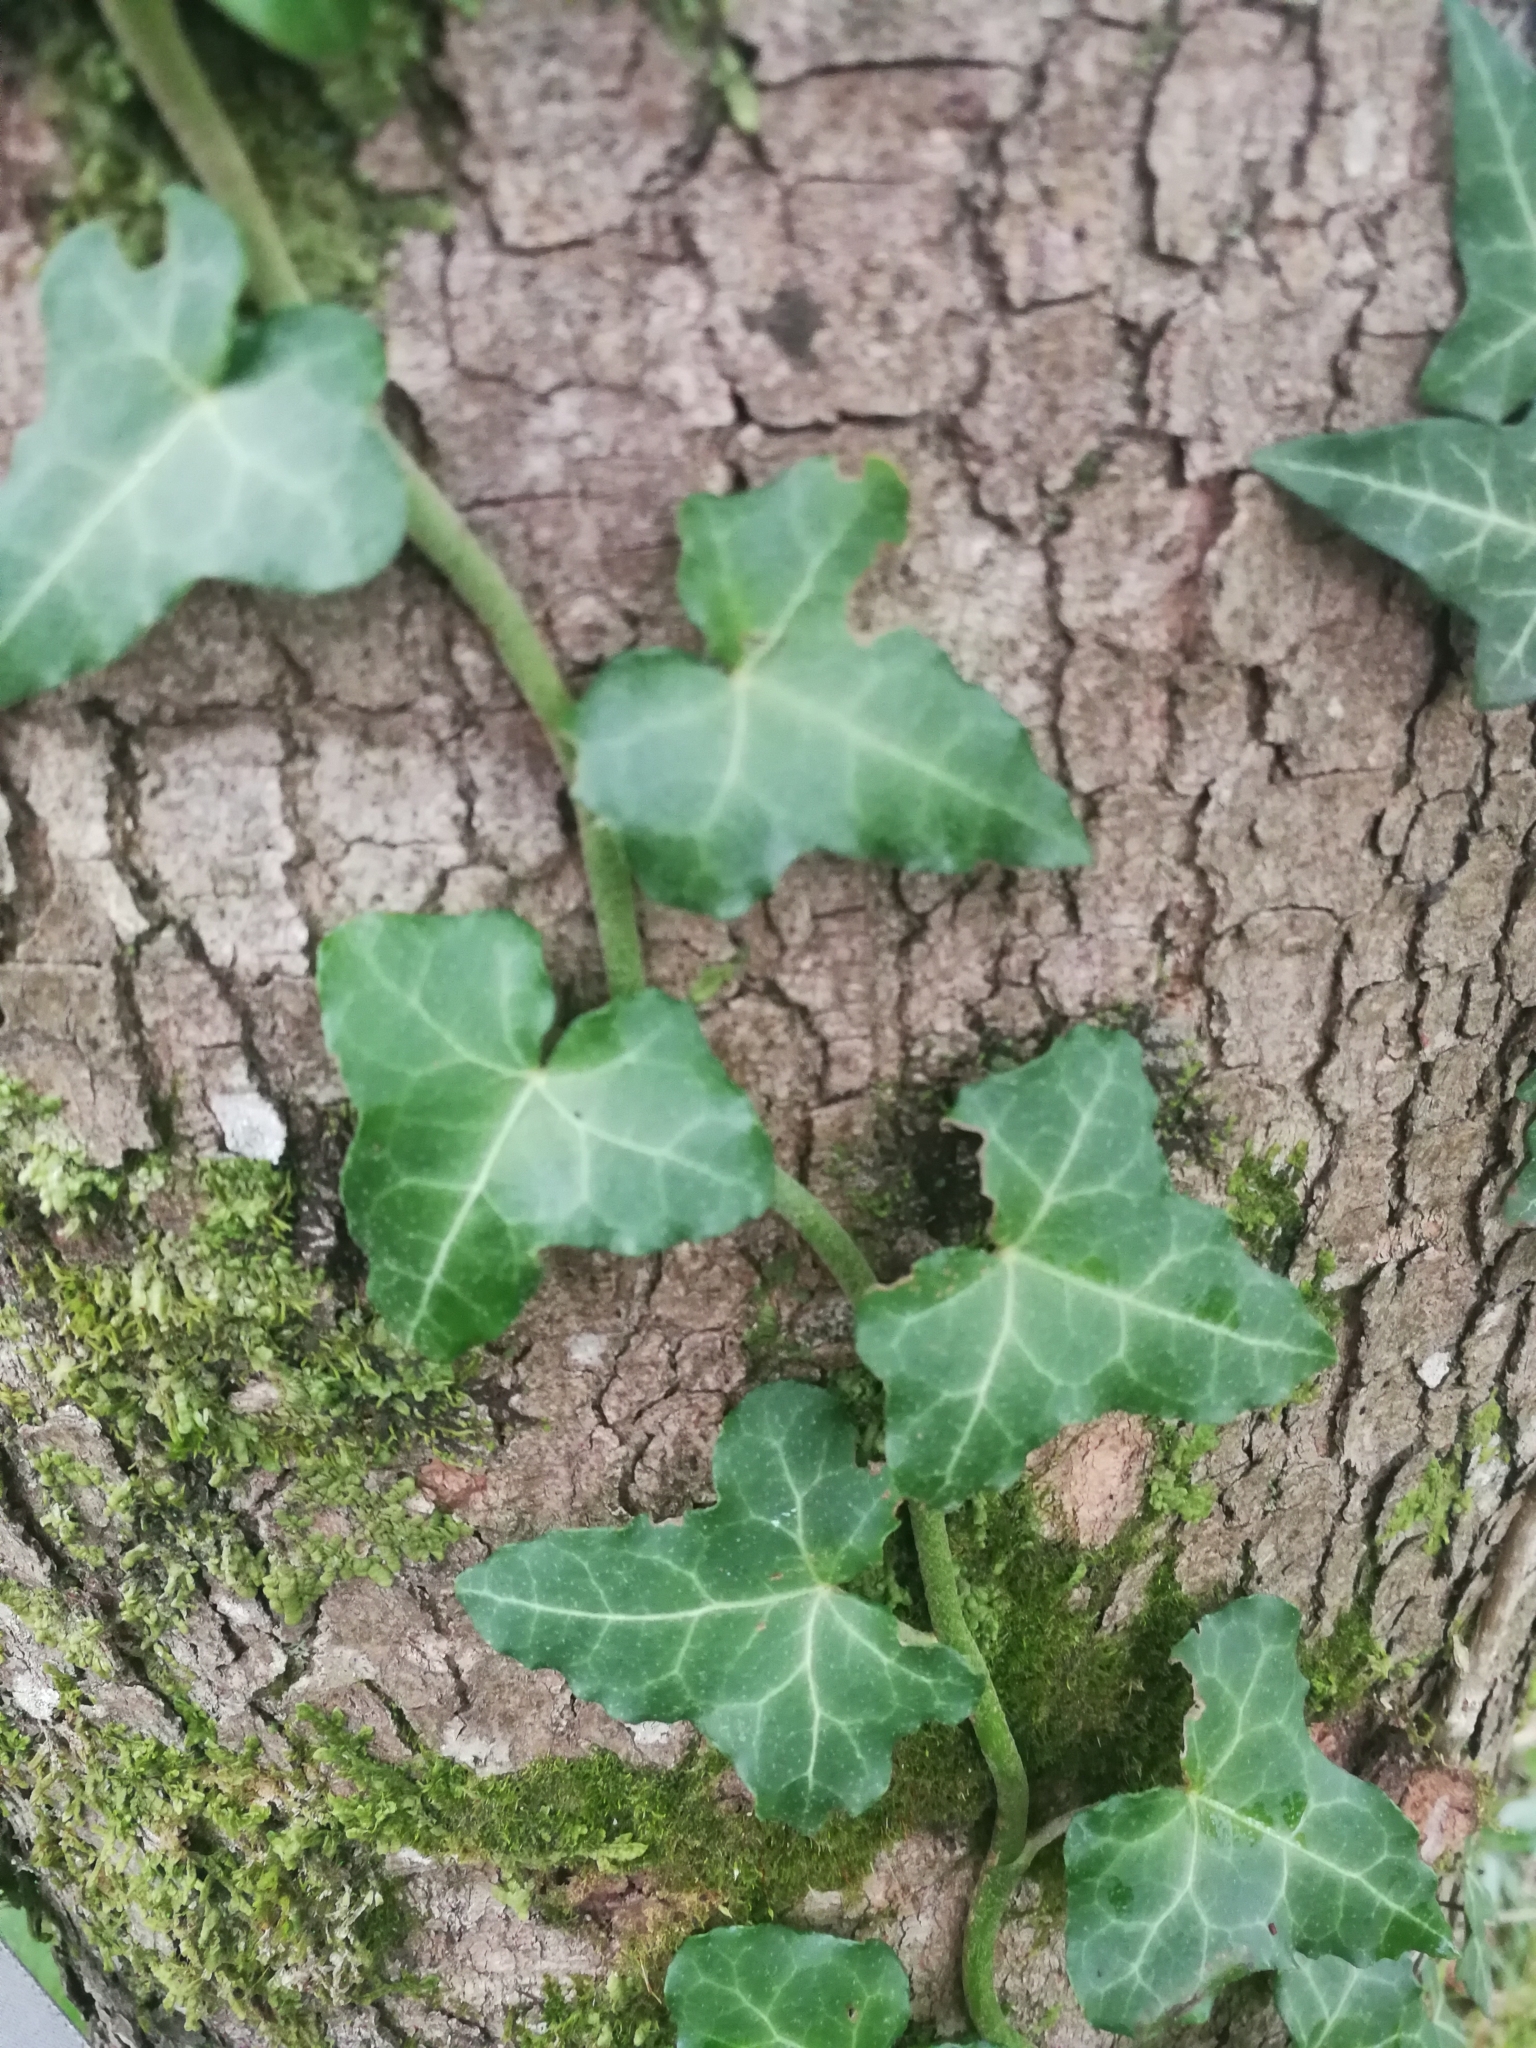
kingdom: Plantae
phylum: Tracheophyta
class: Magnoliopsida
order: Apiales
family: Araliaceae
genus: Hedera
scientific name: Hedera helix
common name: Ivy
